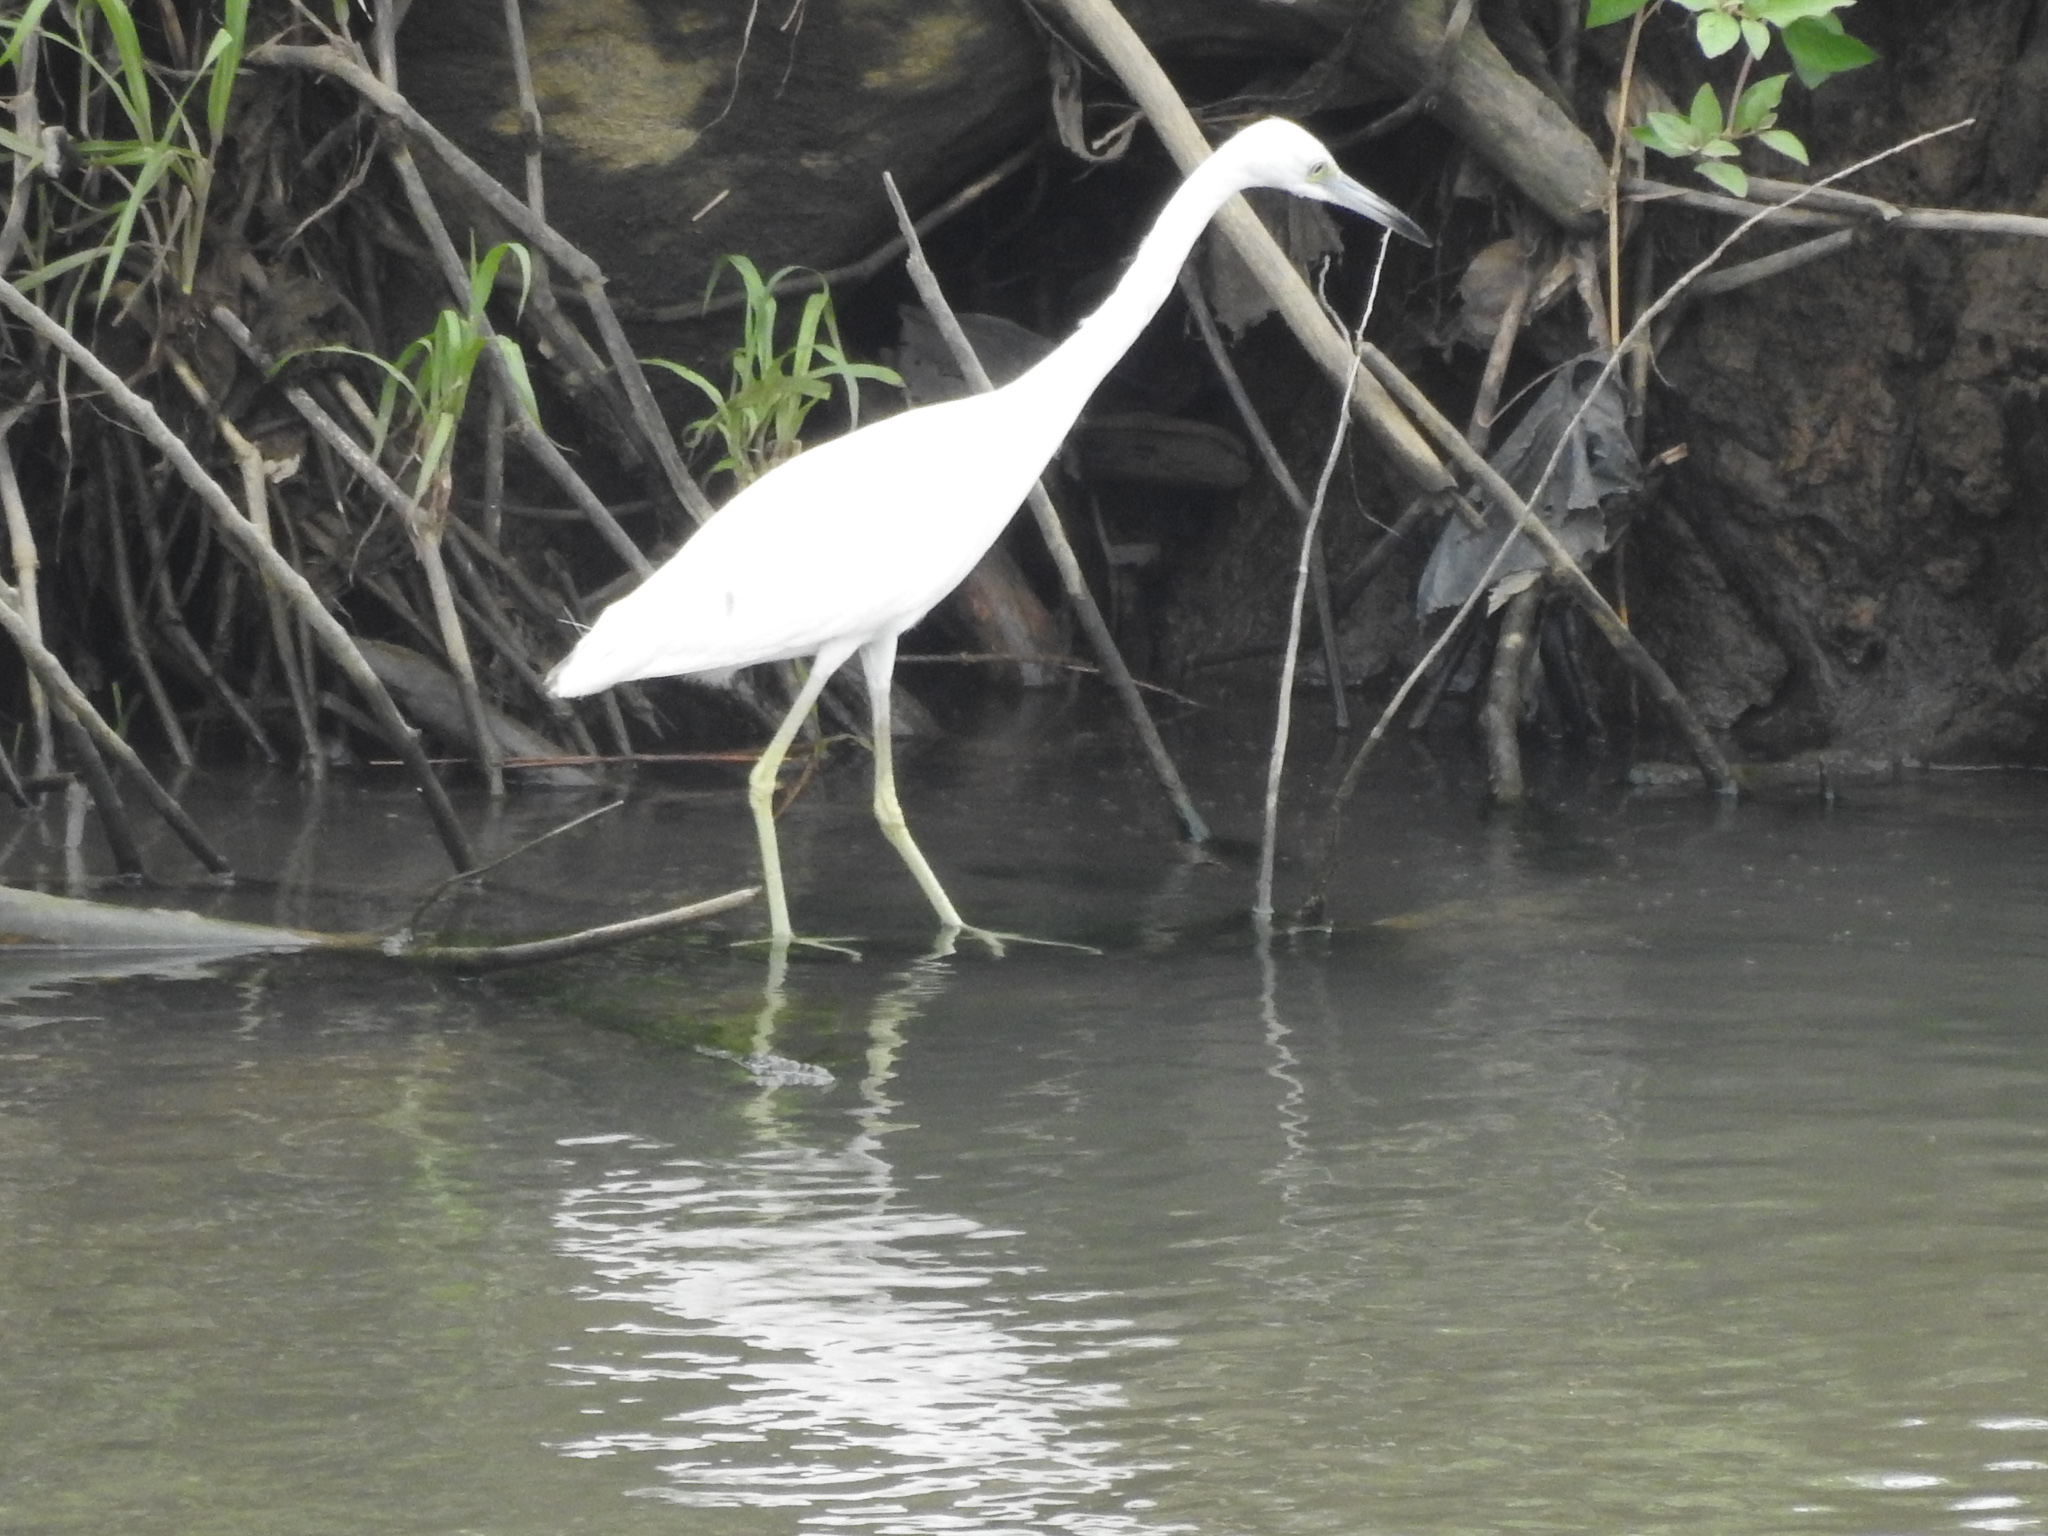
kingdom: Animalia
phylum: Chordata
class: Aves
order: Pelecaniformes
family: Ardeidae
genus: Egretta
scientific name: Egretta caerulea
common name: Little blue heron
